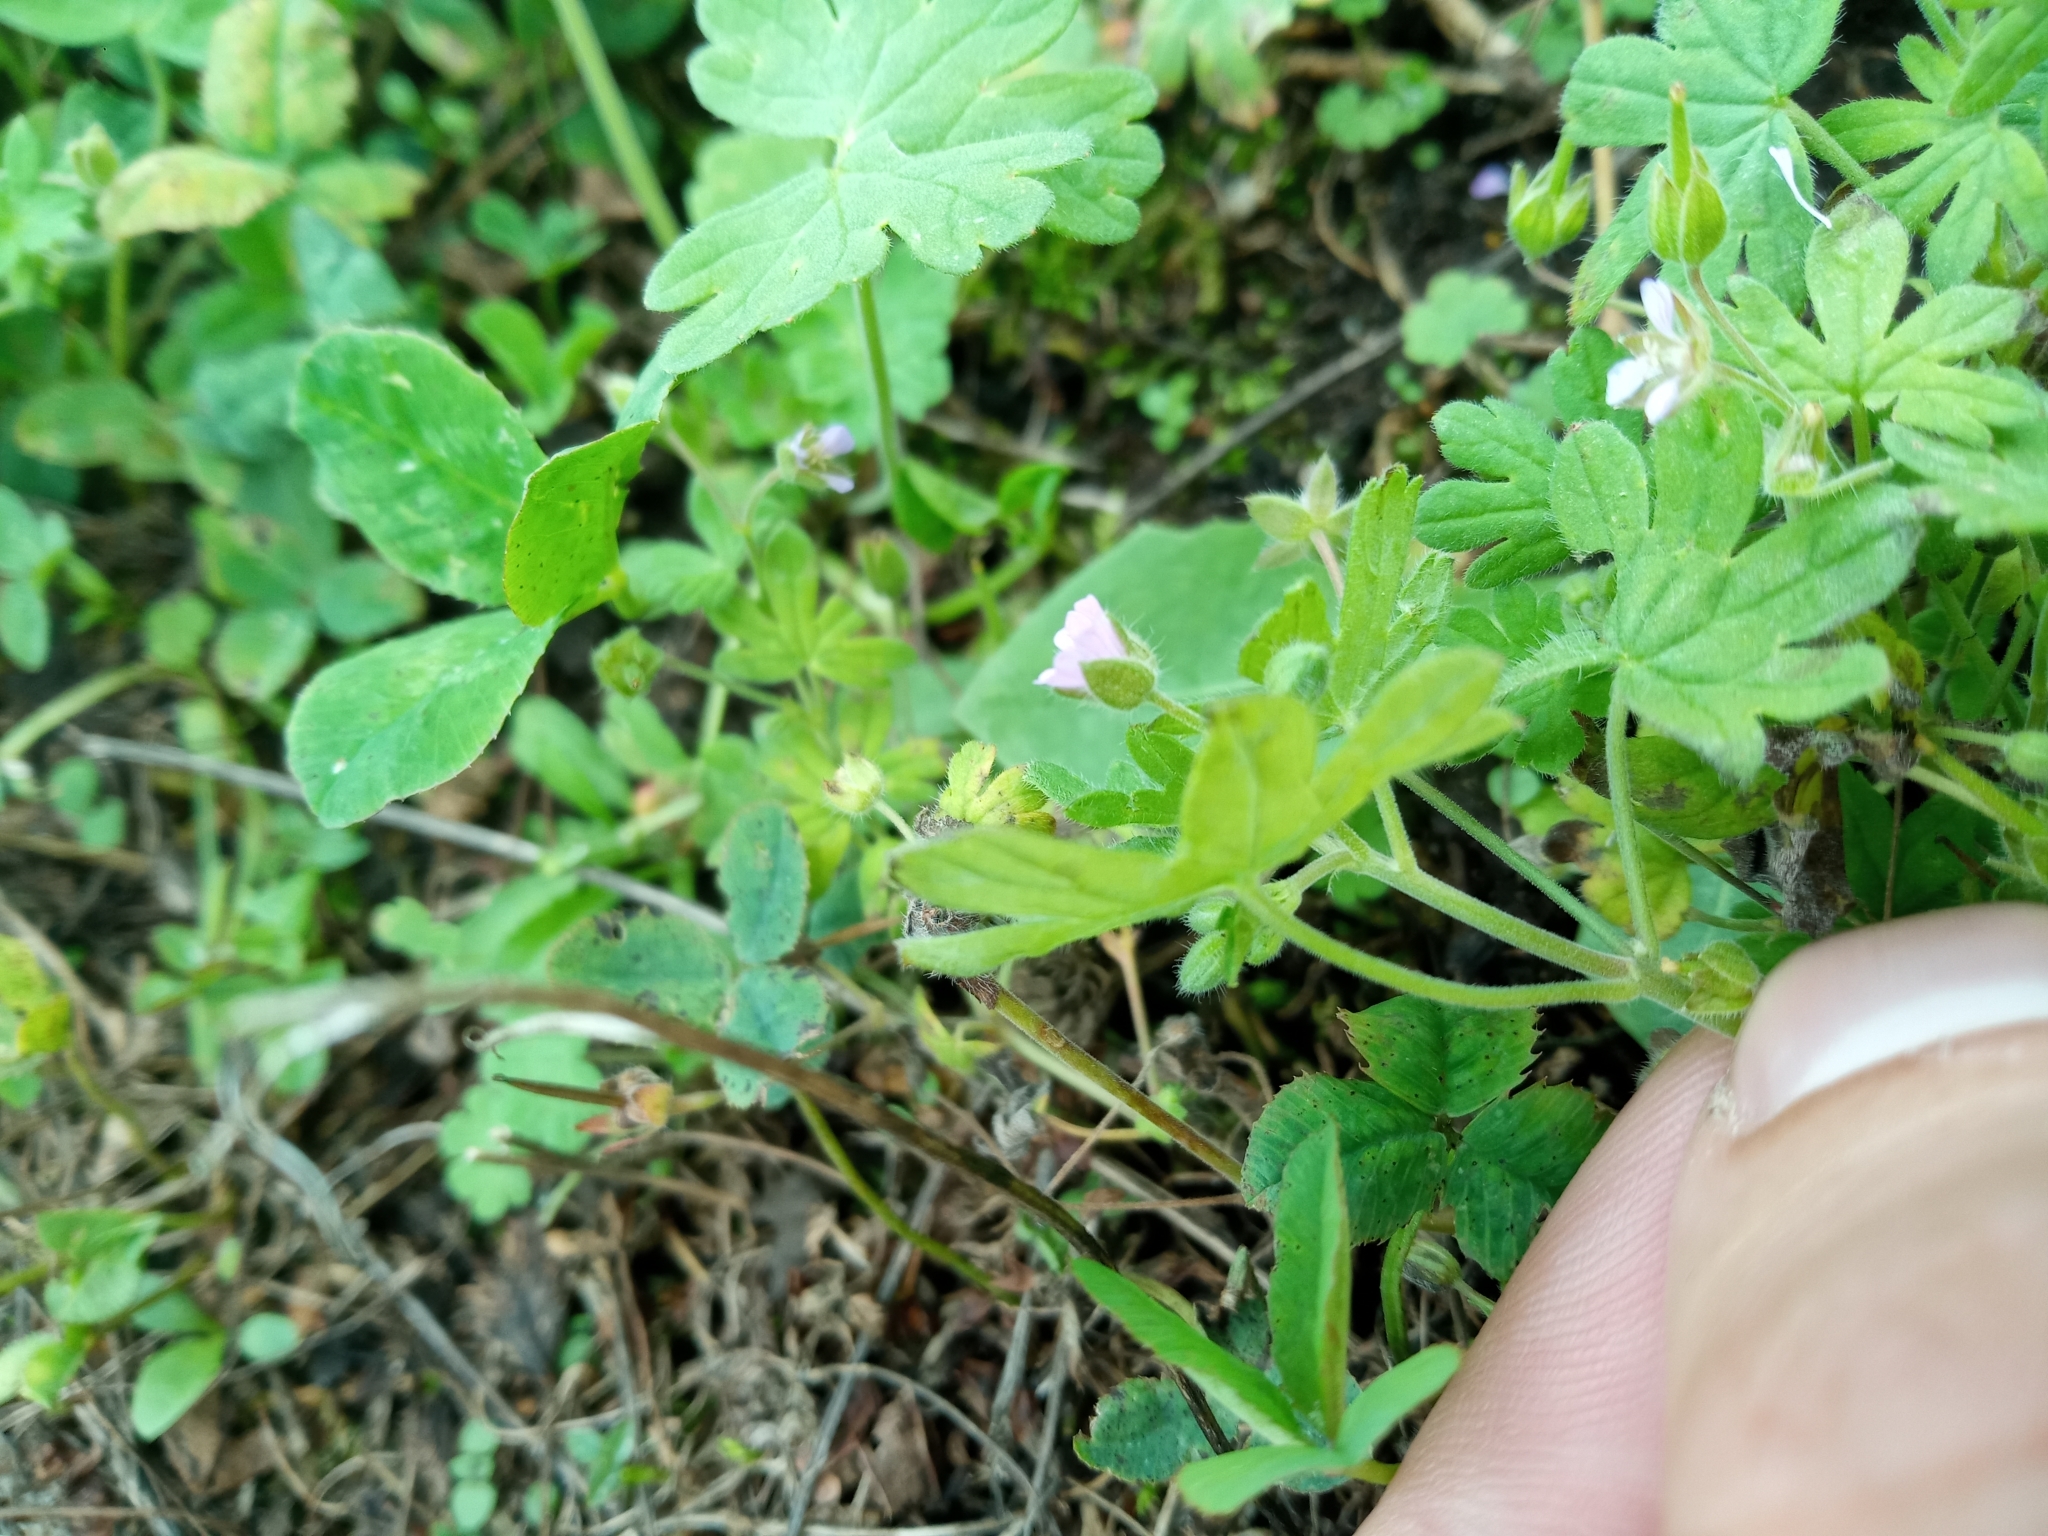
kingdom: Plantae
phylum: Tracheophyta
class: Magnoliopsida
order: Geraniales
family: Geraniaceae
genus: Geranium
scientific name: Geranium pusillum
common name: Small geranium
